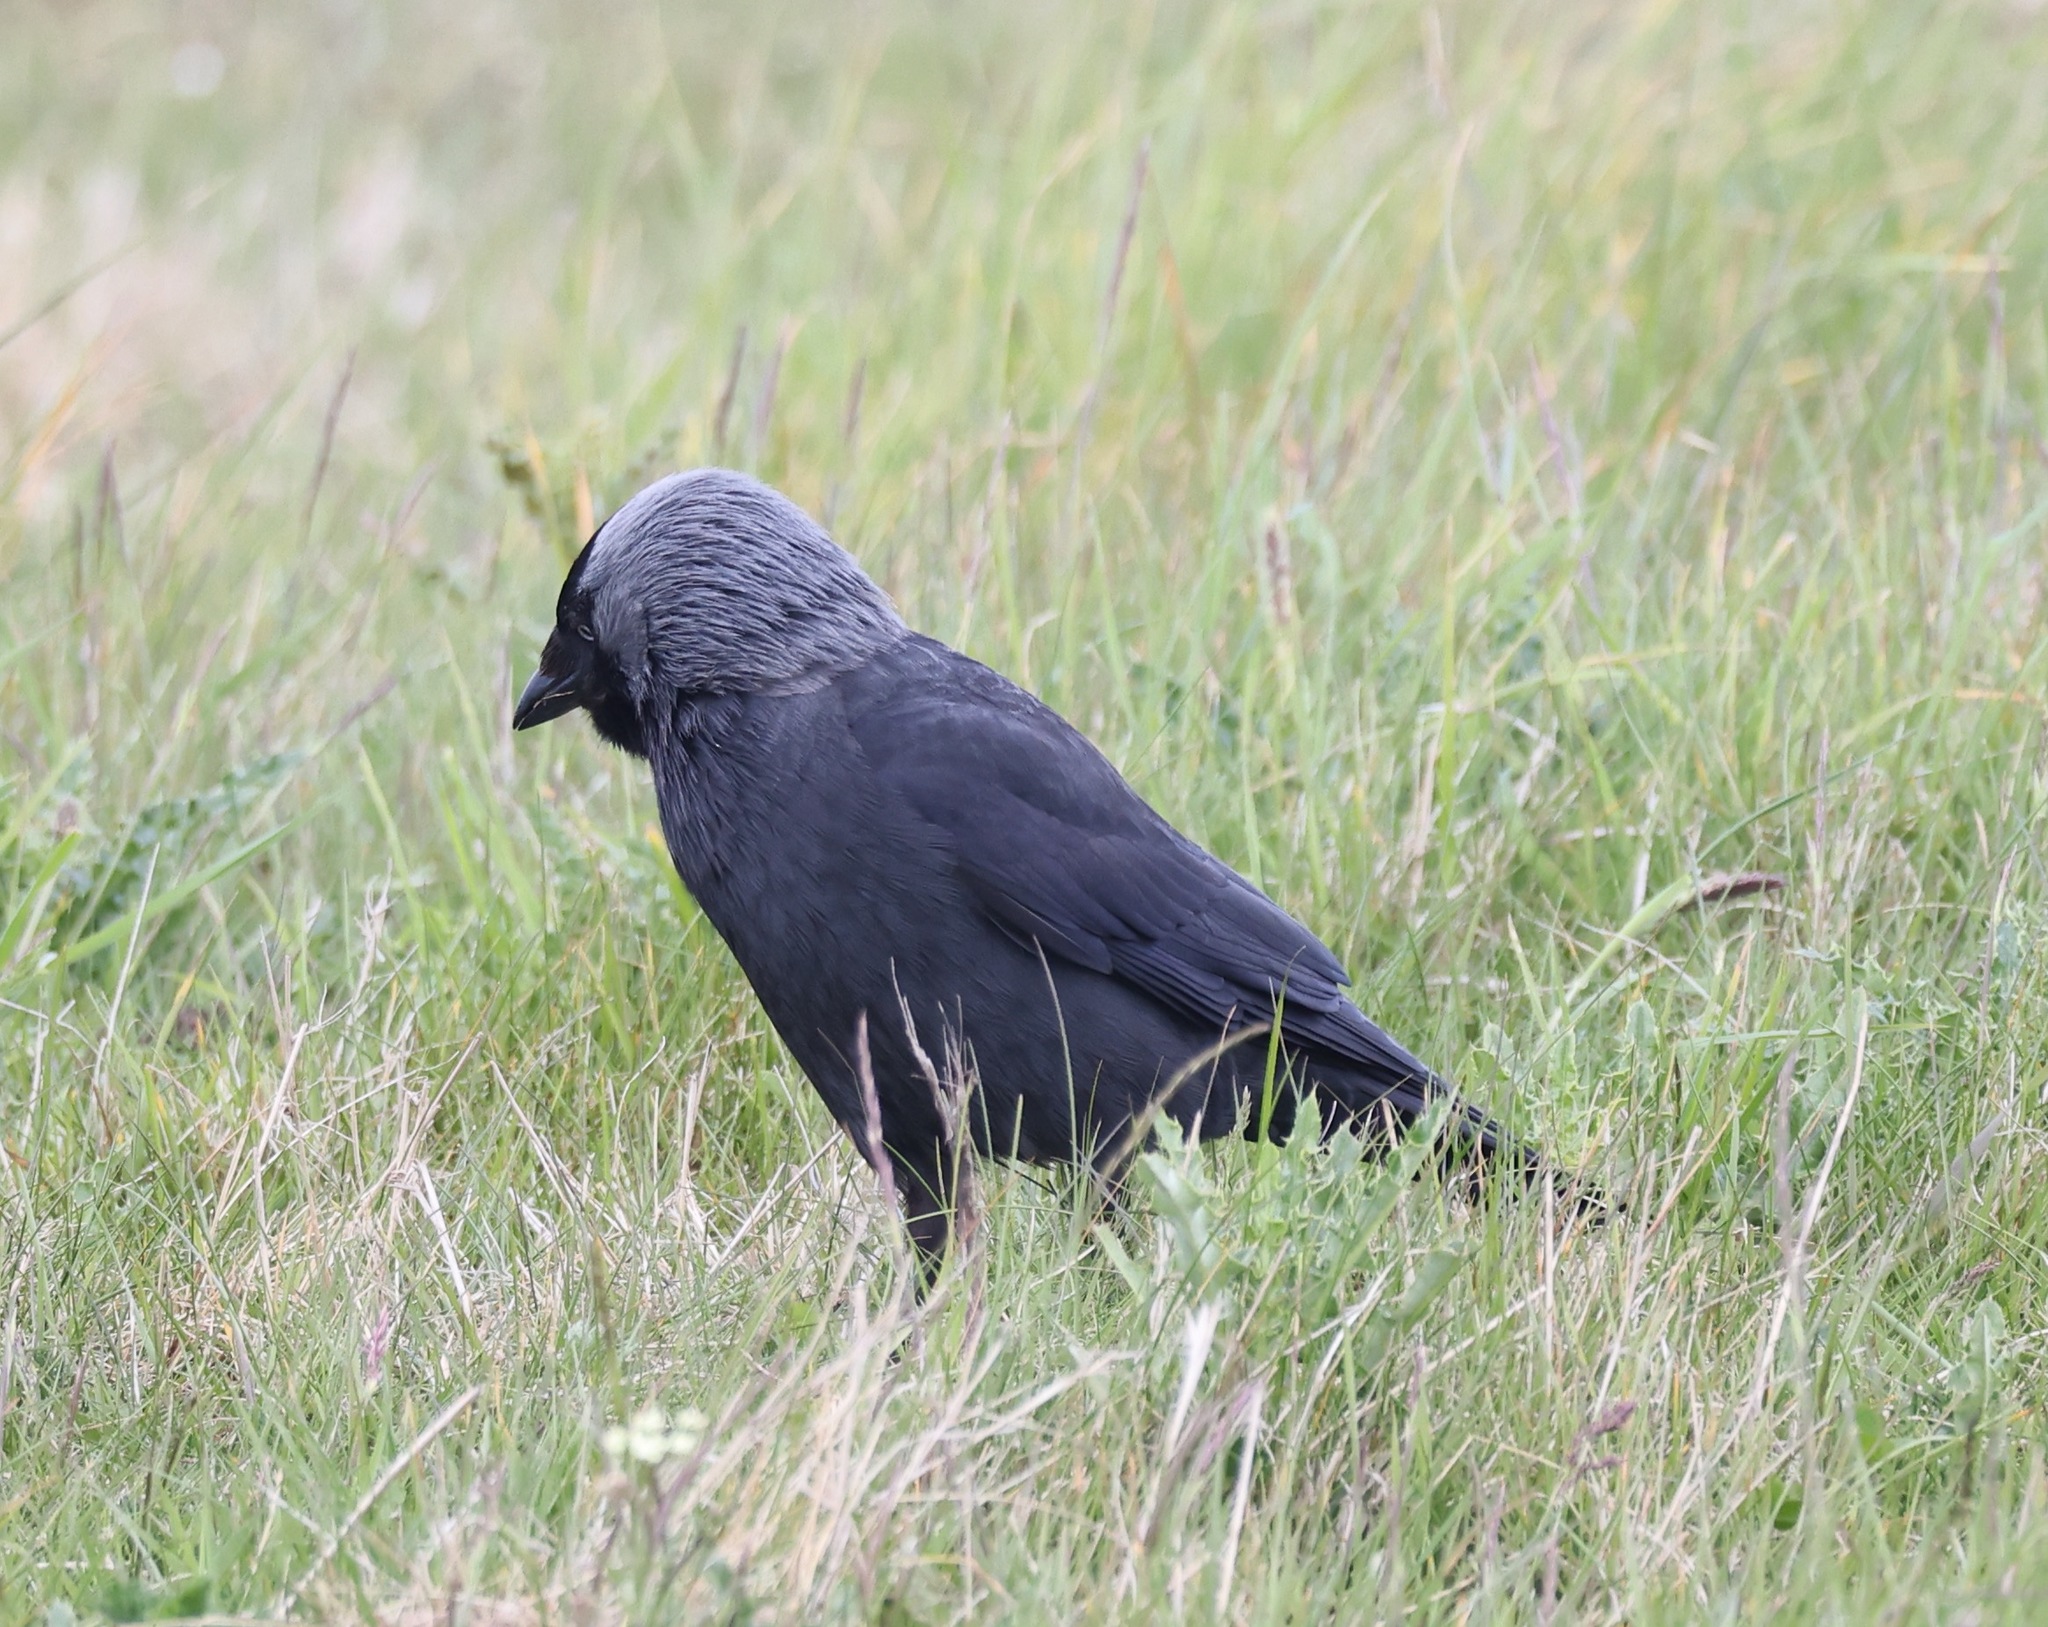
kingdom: Animalia
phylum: Chordata
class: Aves
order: Passeriformes
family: Corvidae
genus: Coloeus
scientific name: Coloeus monedula
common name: Western jackdaw
